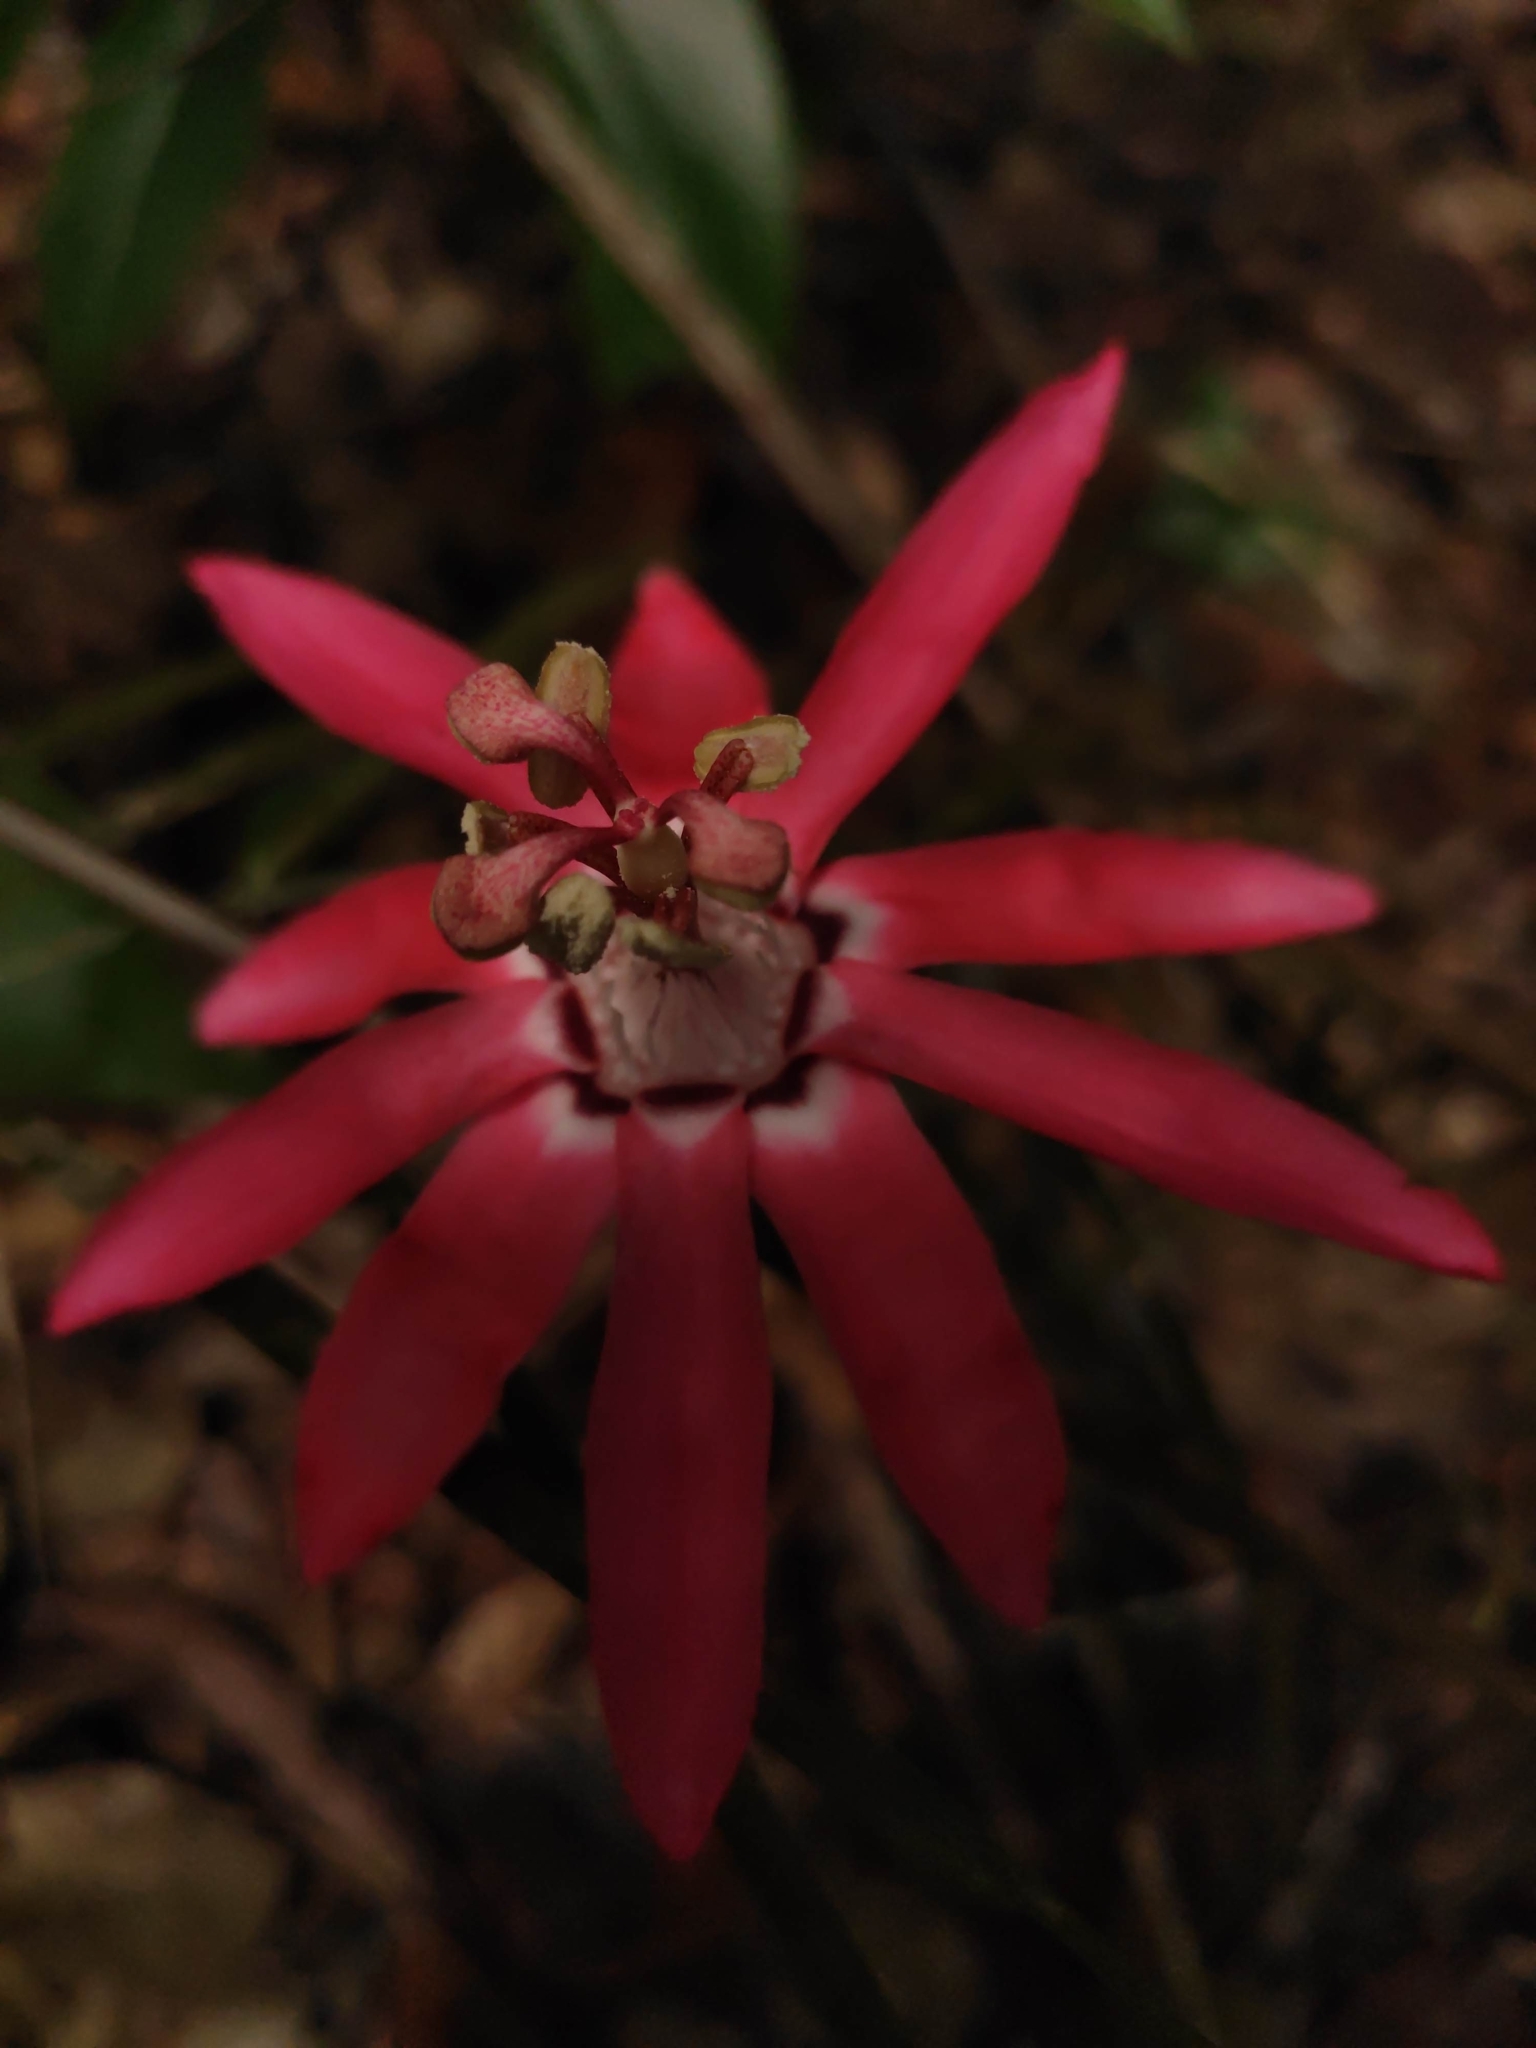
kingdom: Plantae
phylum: Tracheophyta
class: Magnoliopsida
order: Malpighiales
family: Passifloraceae
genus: Passiflora
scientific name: Passiflora glandulosa
